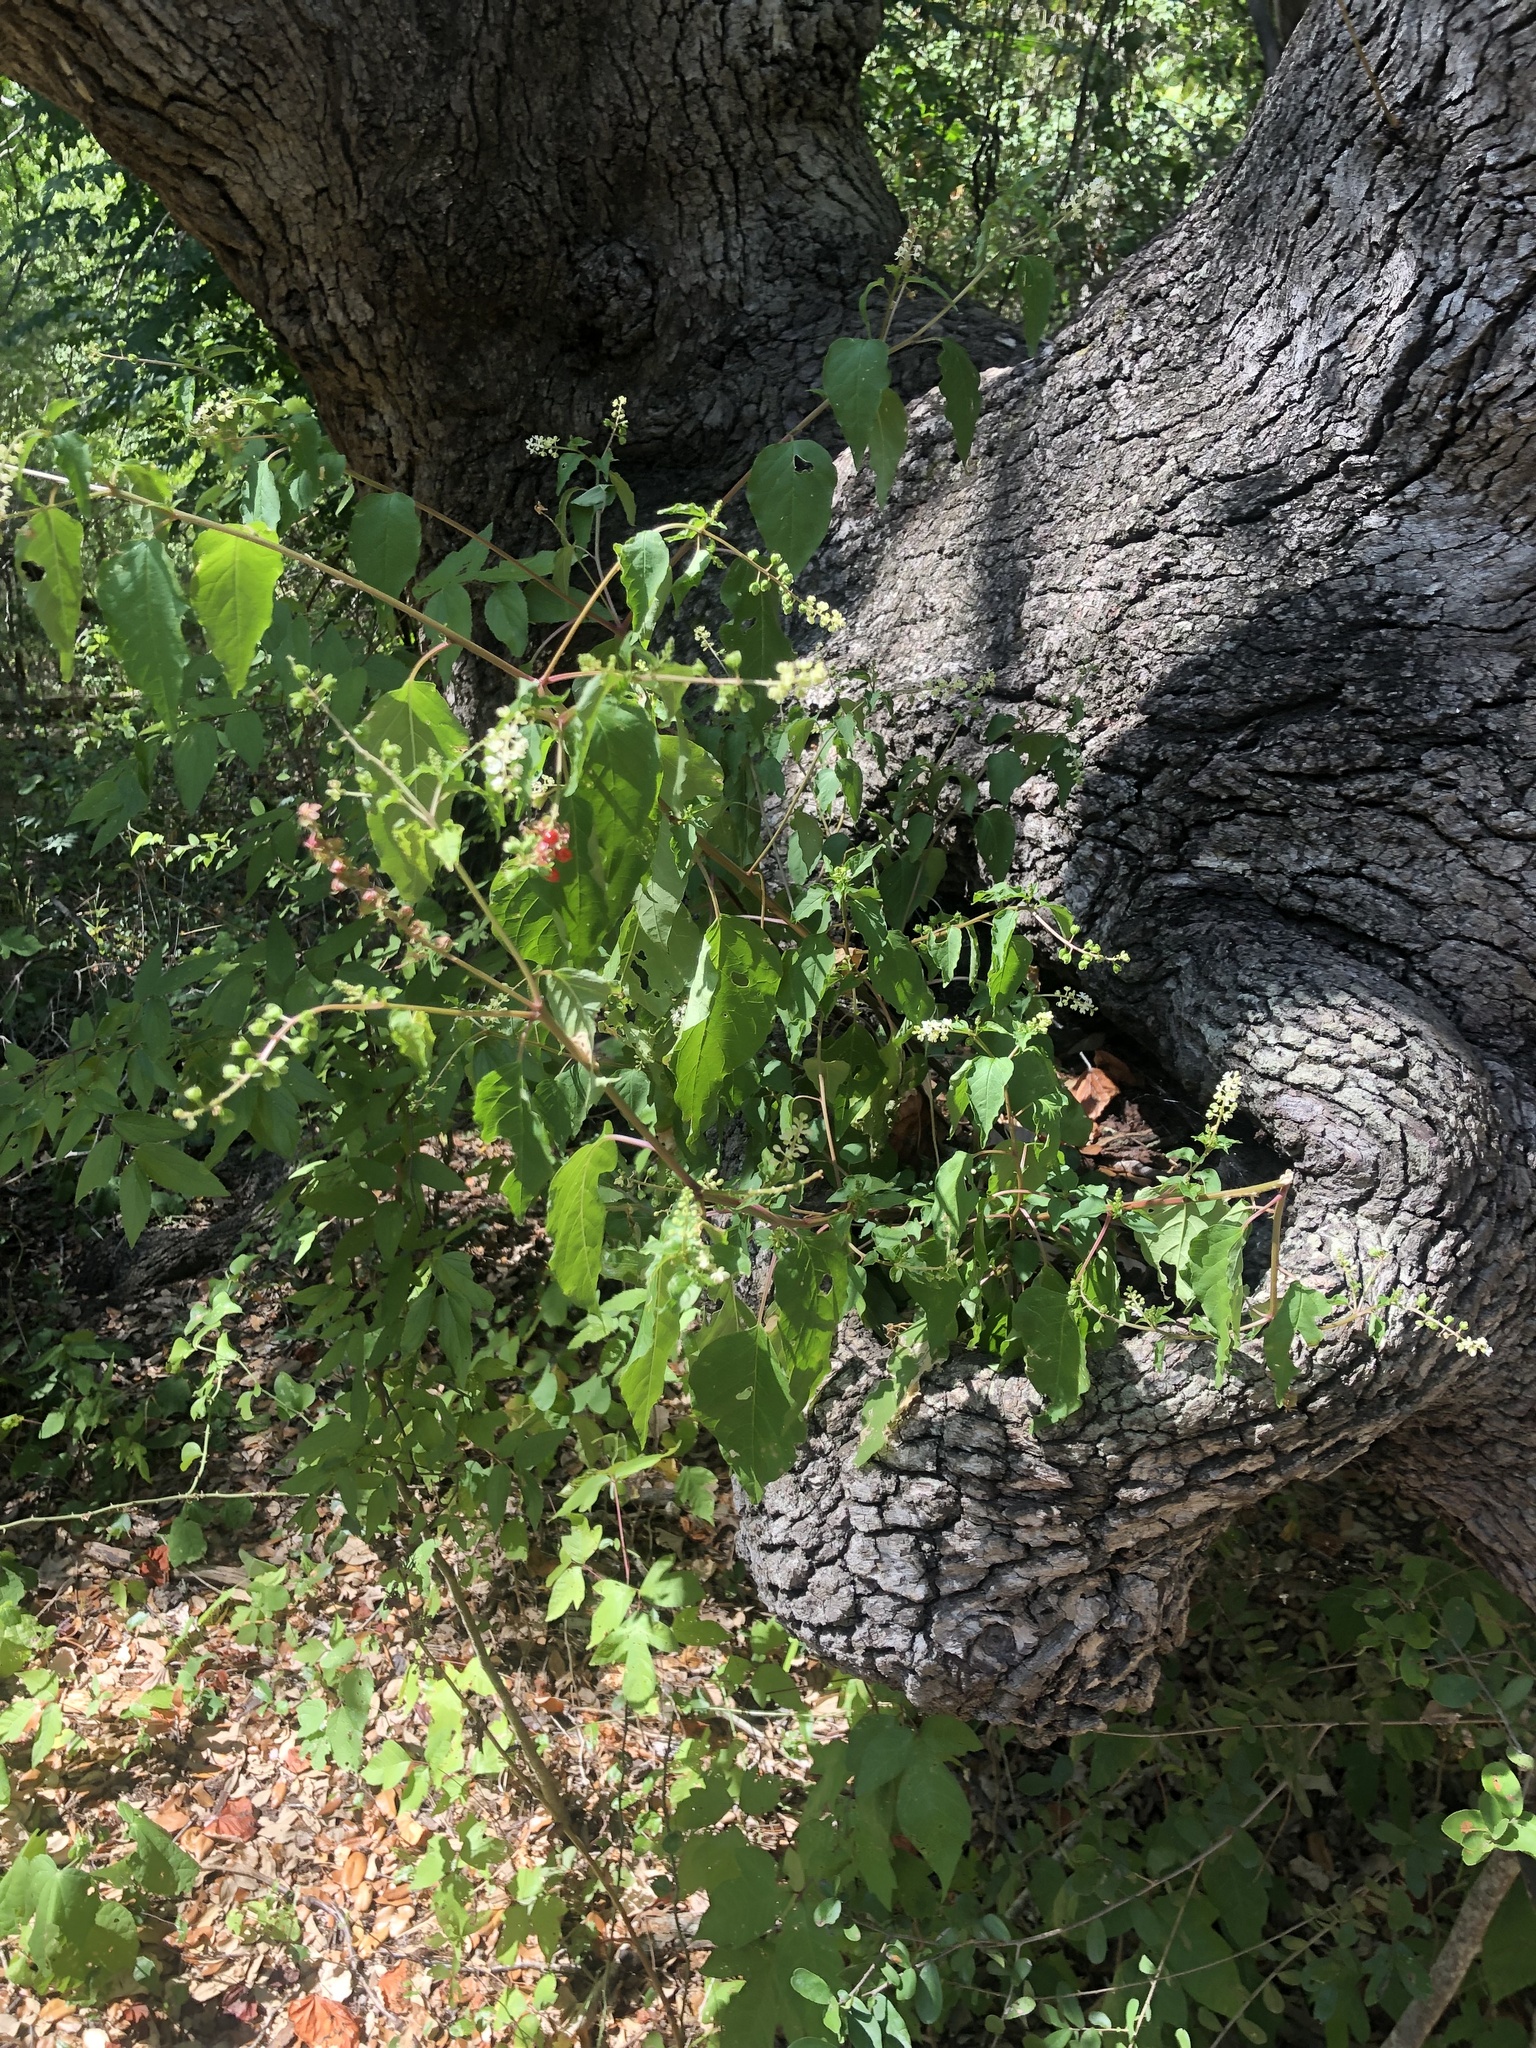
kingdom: Plantae
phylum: Tracheophyta
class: Magnoliopsida
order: Caryophyllales
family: Phytolaccaceae
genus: Rivina
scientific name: Rivina humilis
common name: Rougeplant
